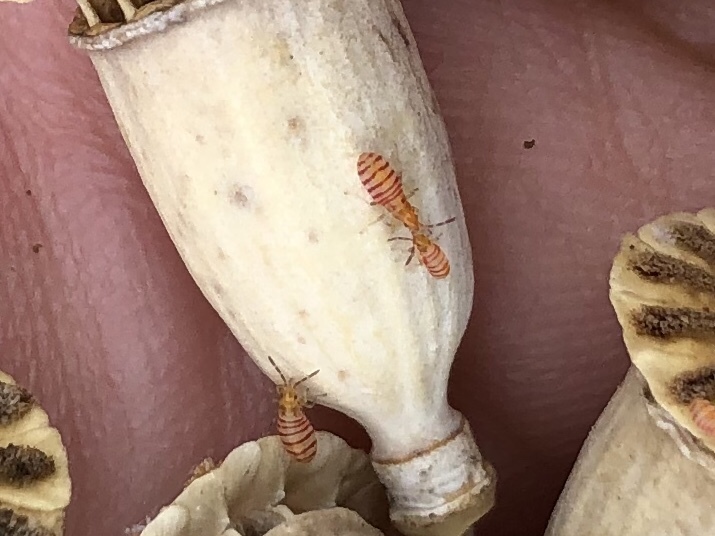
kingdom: Animalia
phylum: Arthropoda
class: Insecta
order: Hemiptera
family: Oxycarenidae
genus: Brachyplax
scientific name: Brachyplax tenuis
